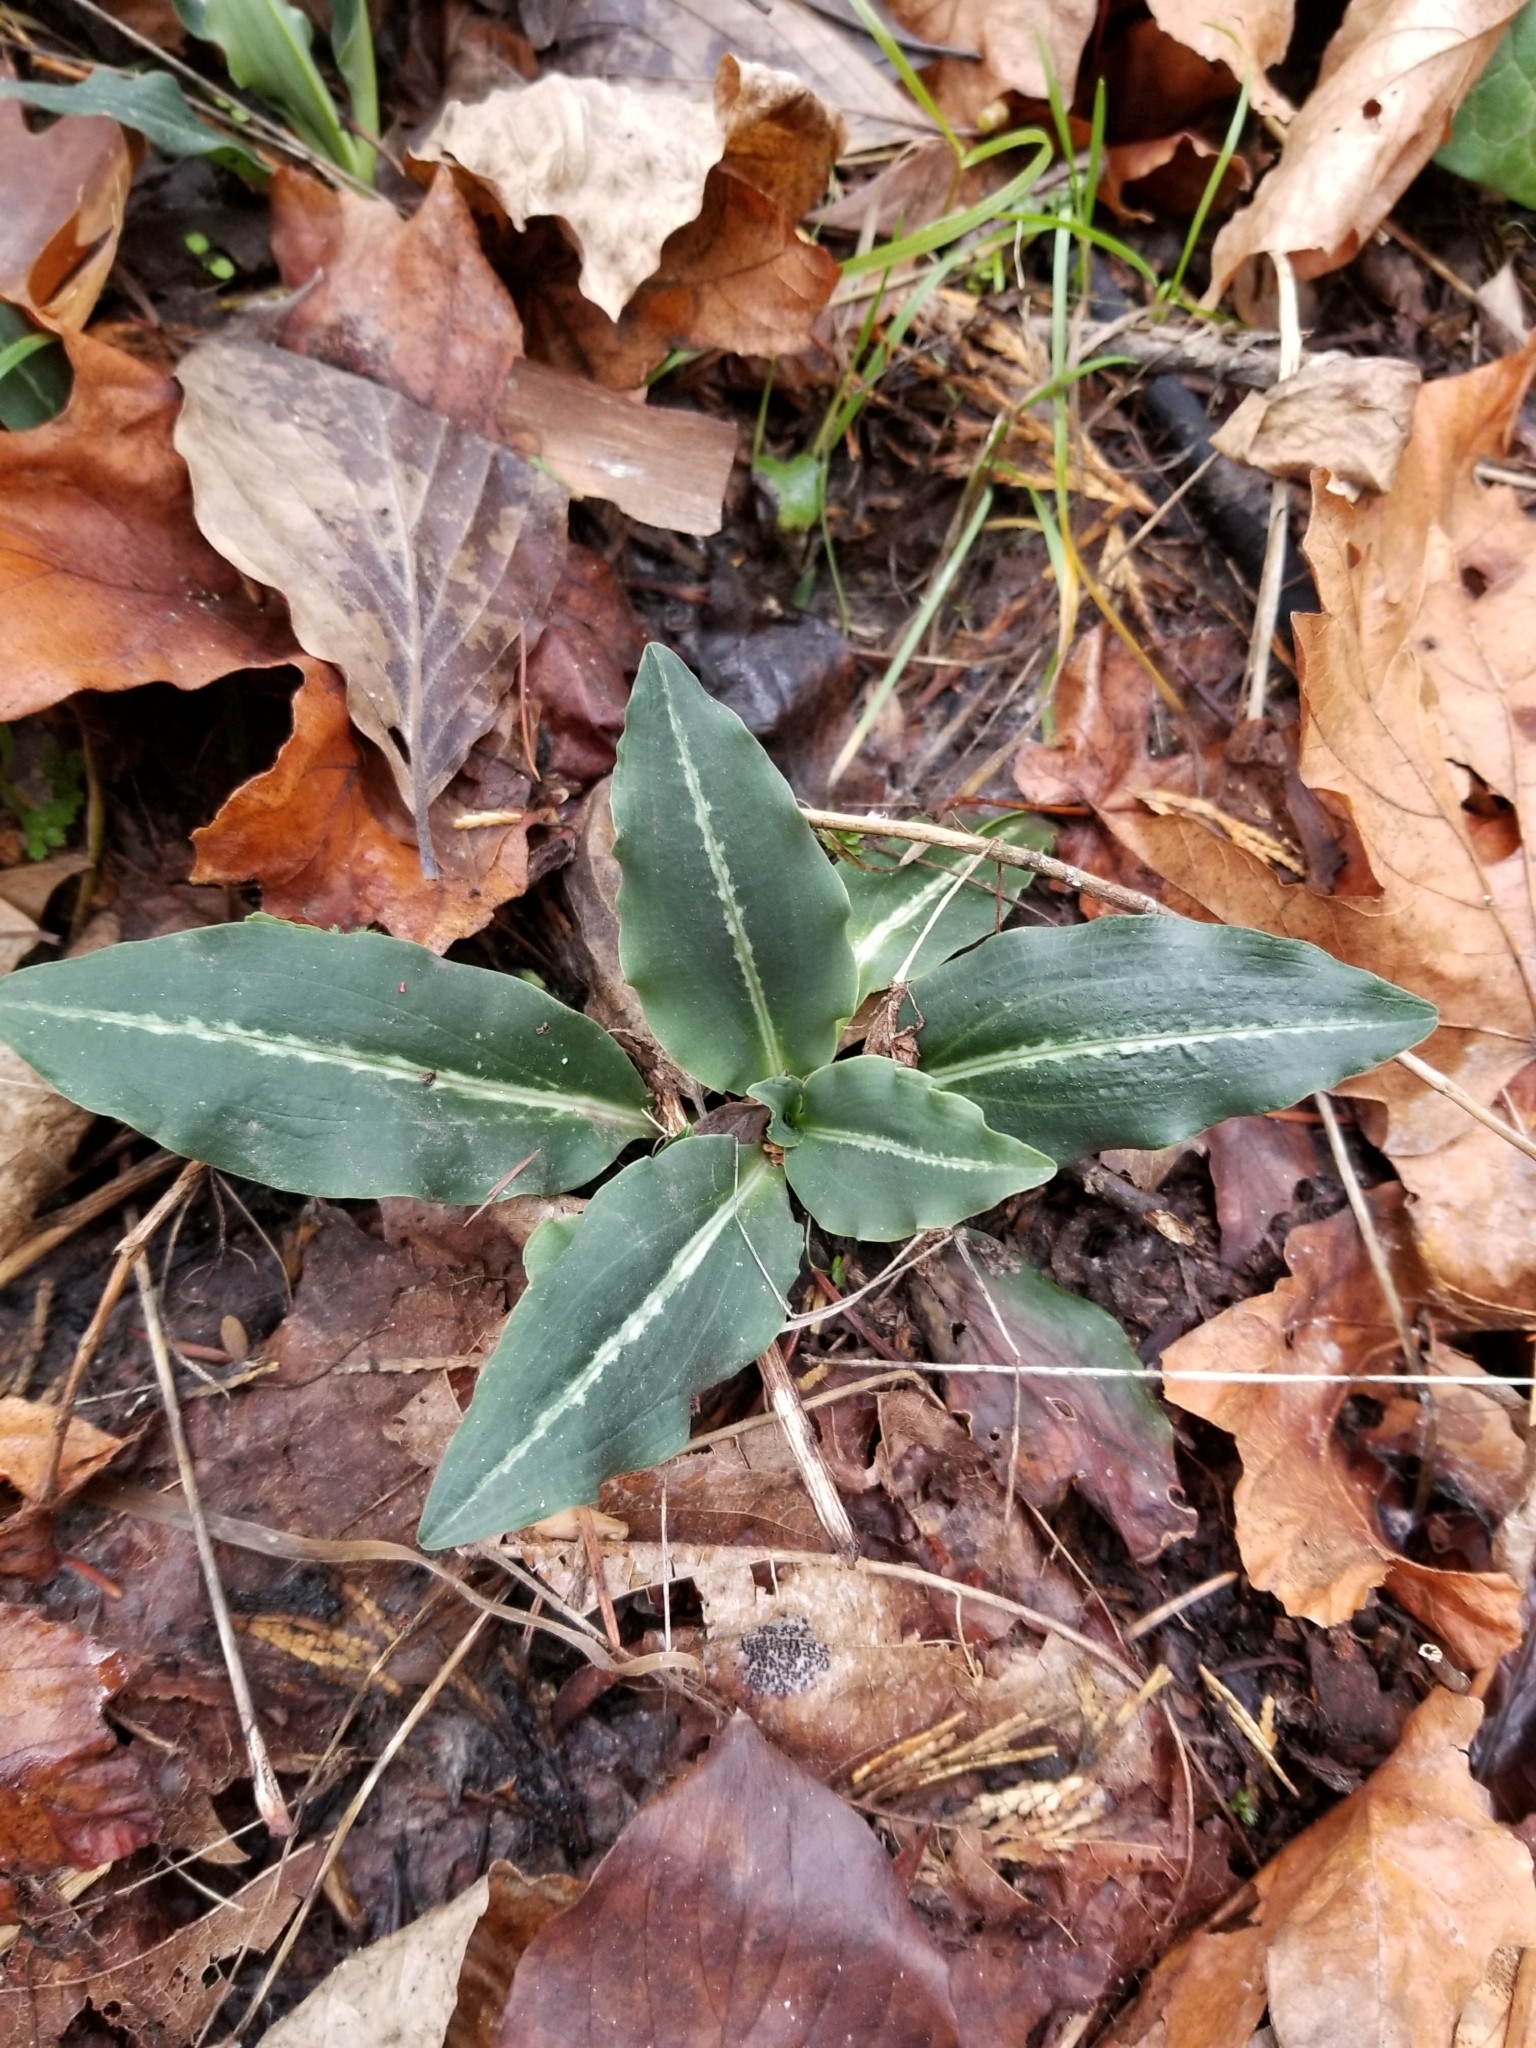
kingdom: Plantae
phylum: Tracheophyta
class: Liliopsida
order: Asparagales
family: Orchidaceae
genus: Goodyera
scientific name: Goodyera oblongifolia
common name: Giant rattlesnake-plantain
